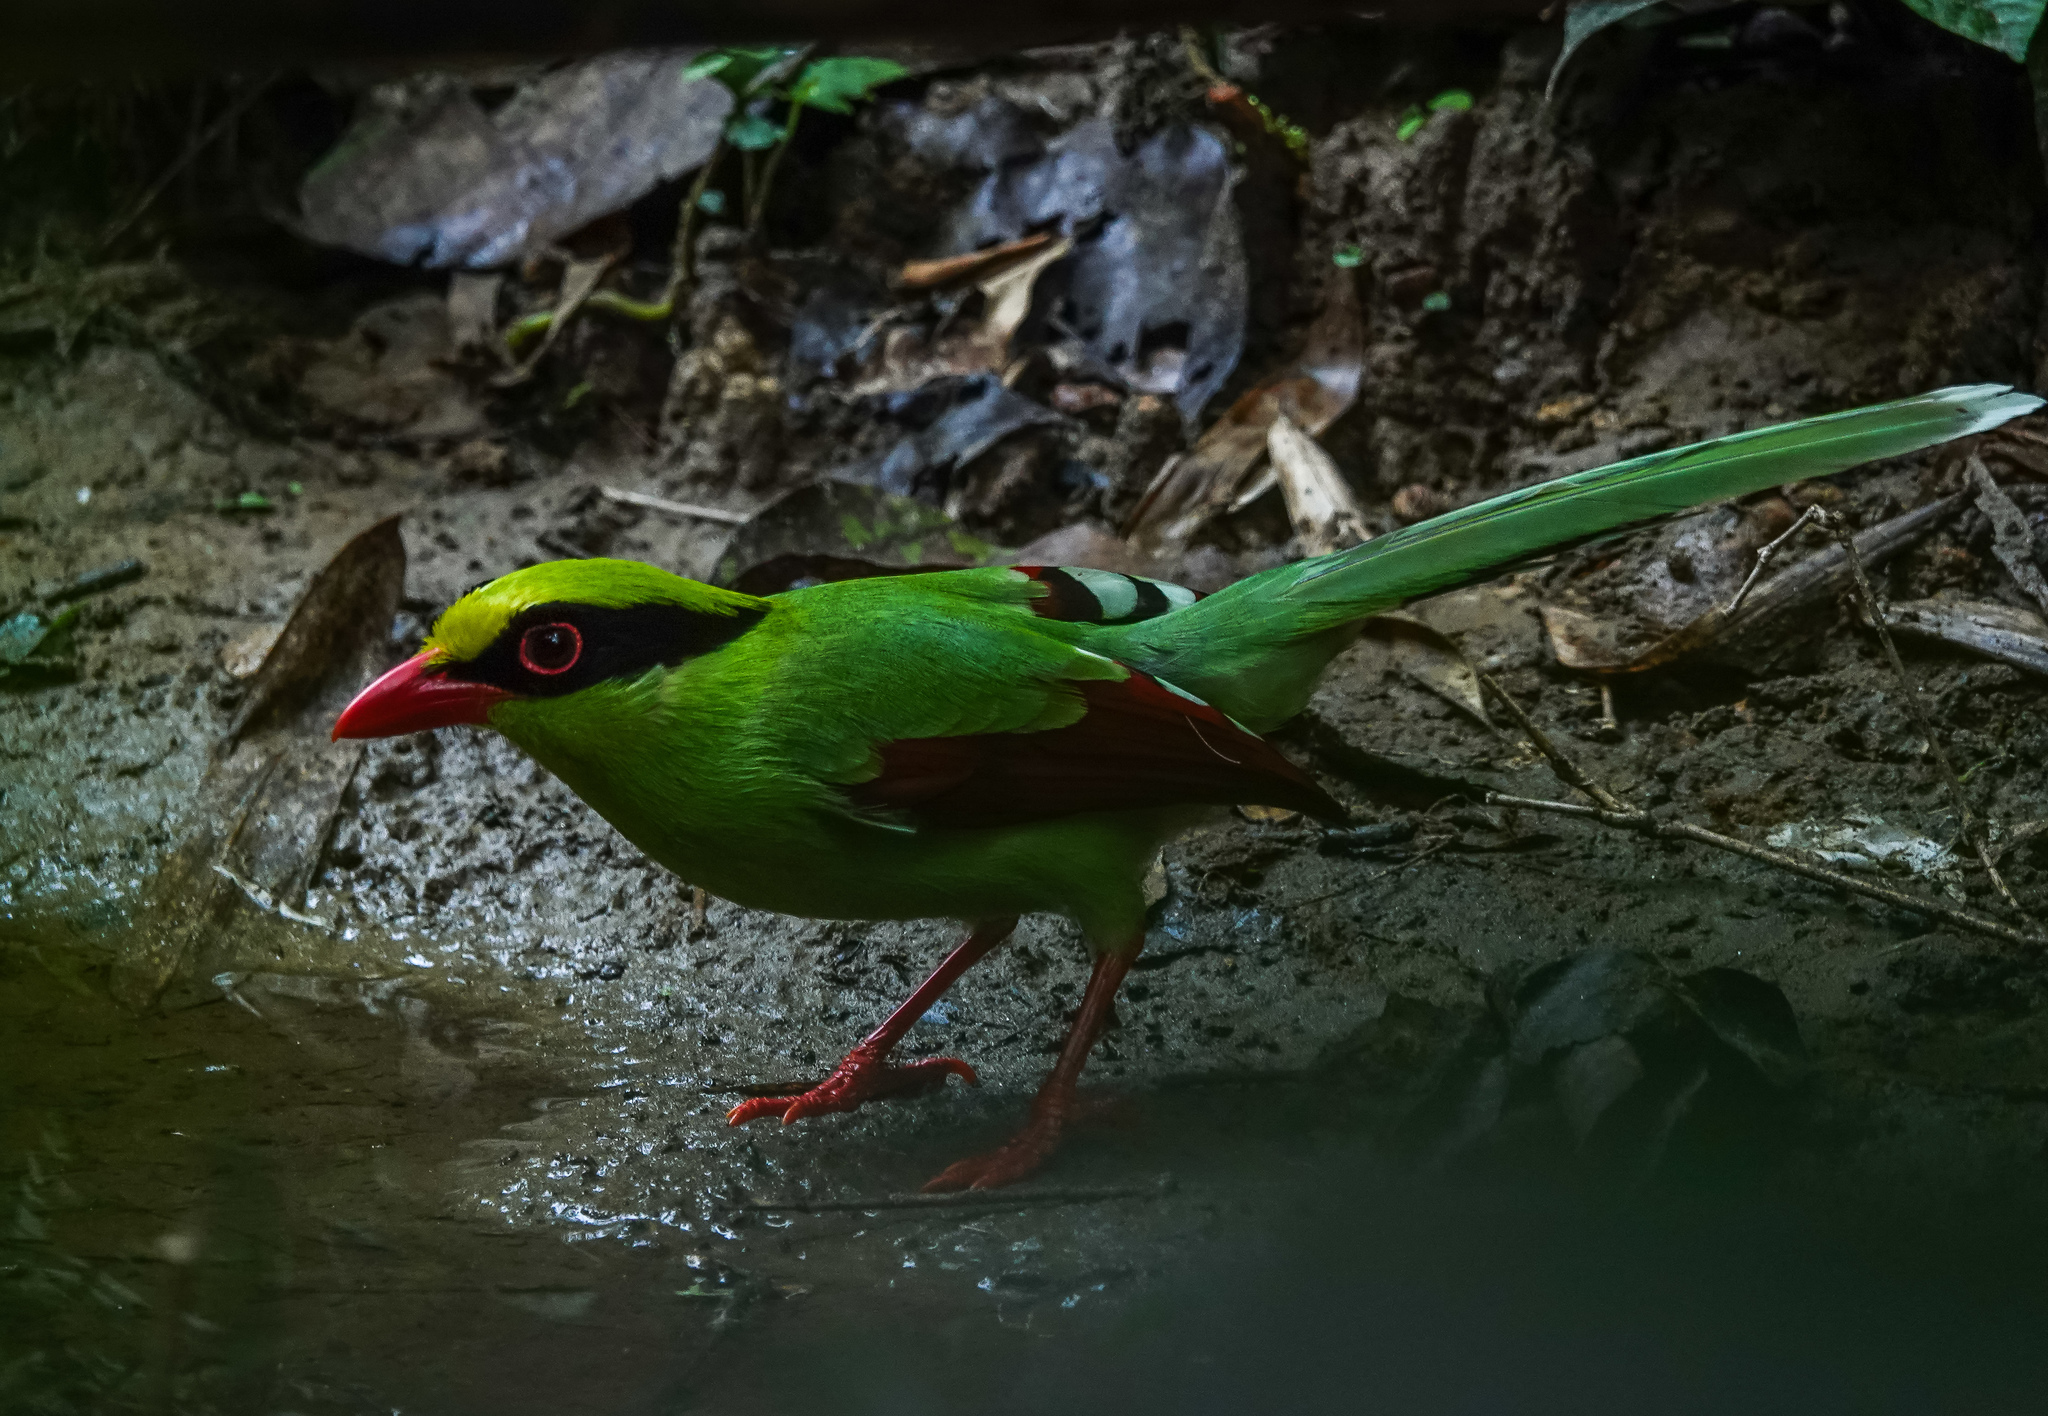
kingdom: Animalia
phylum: Chordata
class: Aves
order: Passeriformes
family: Corvidae
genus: Cissa
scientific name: Cissa chinensis
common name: Common green magpie
